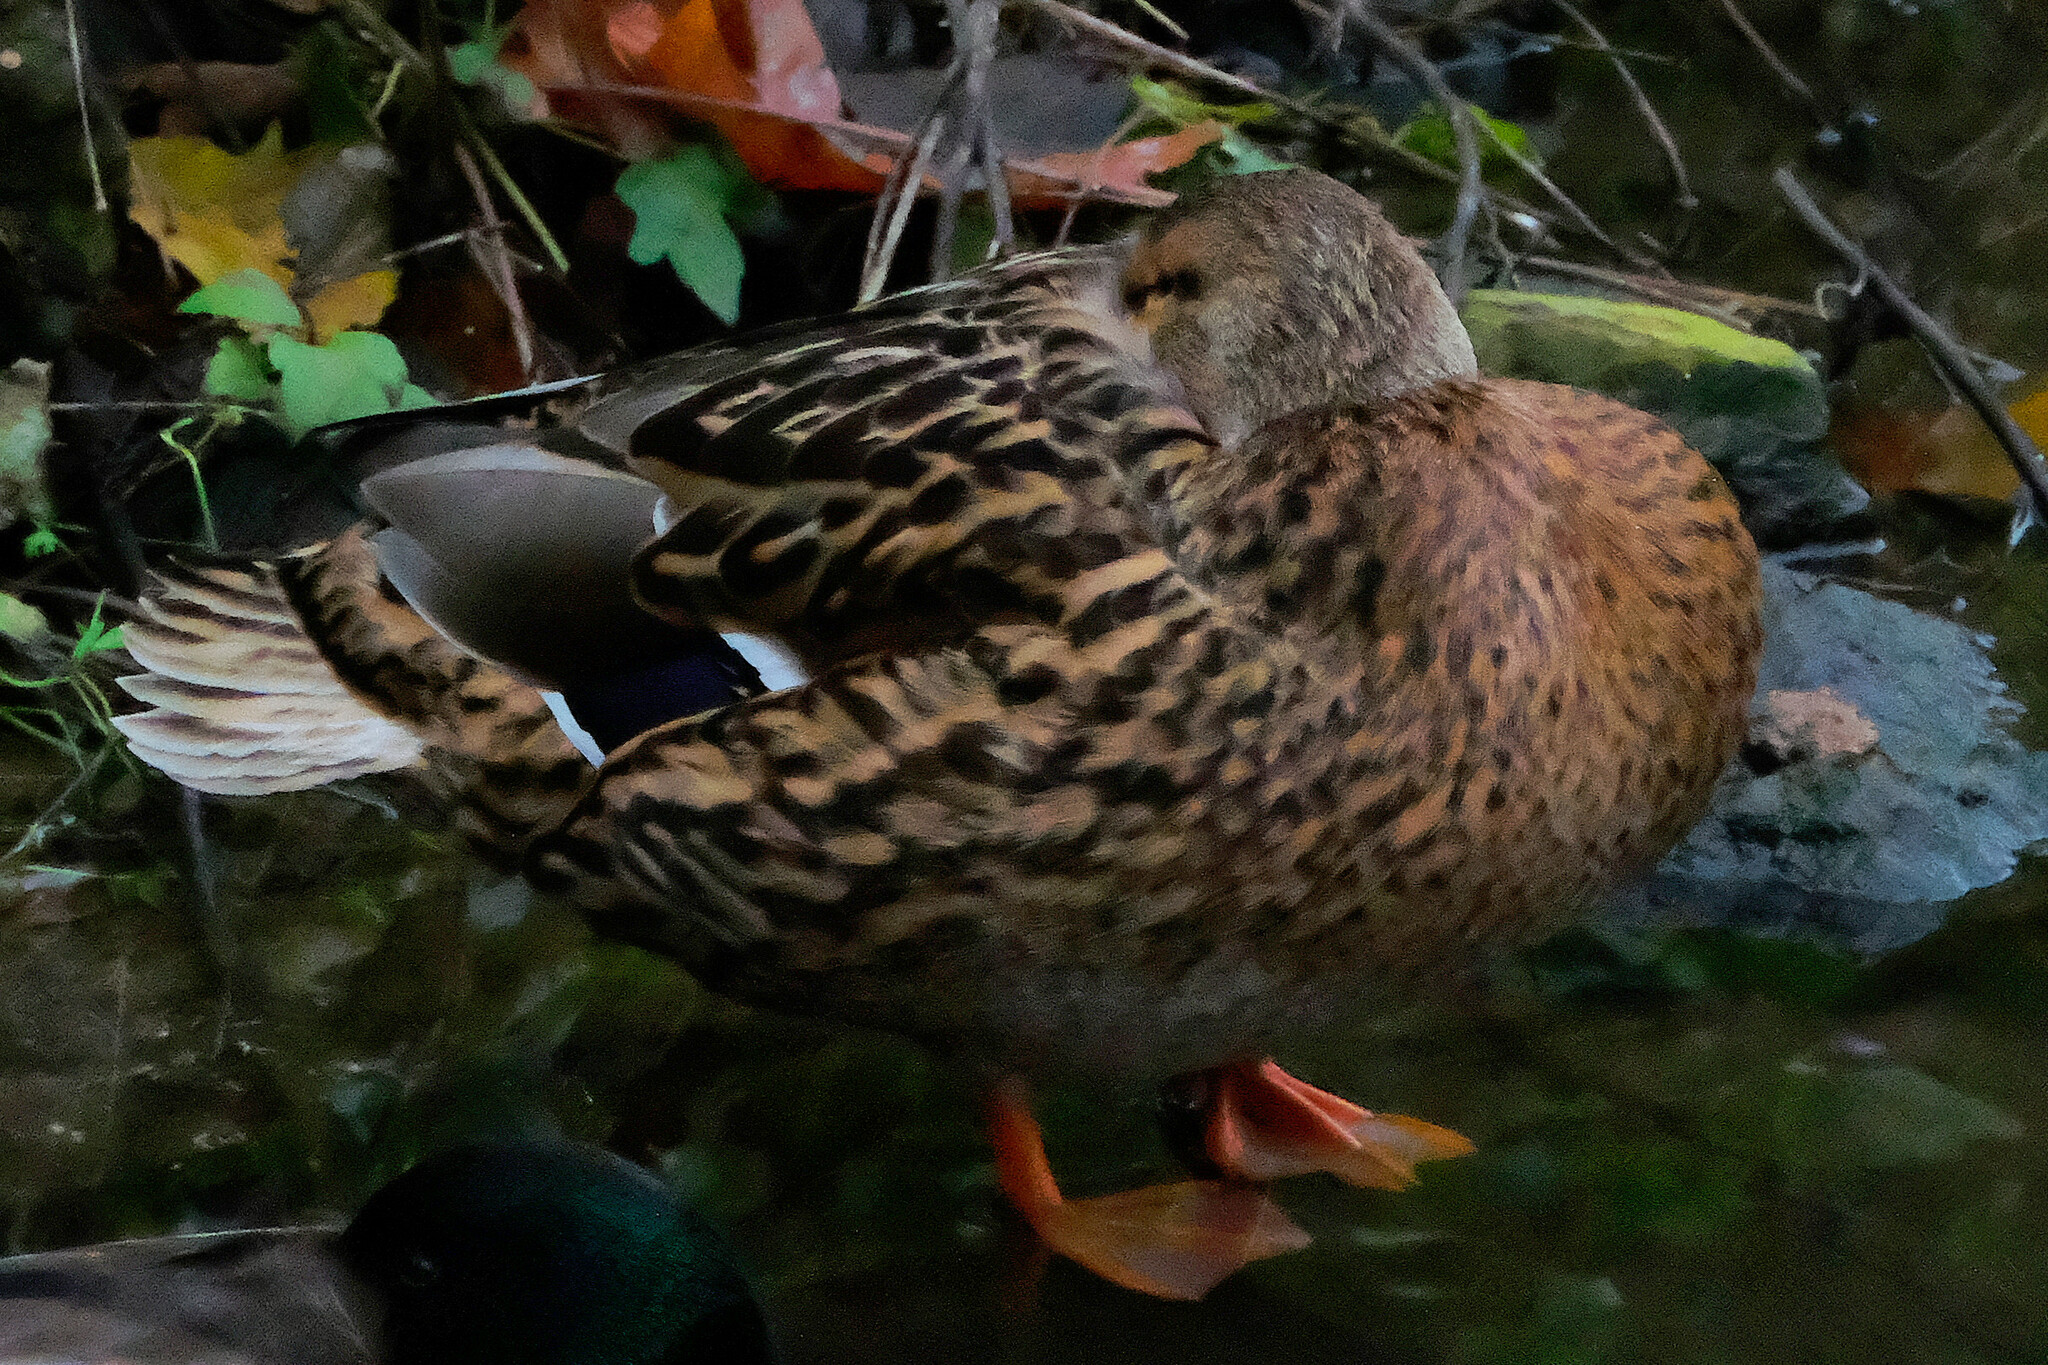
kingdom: Animalia
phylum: Chordata
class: Aves
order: Anseriformes
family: Anatidae
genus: Anas
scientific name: Anas platyrhynchos
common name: Mallard
